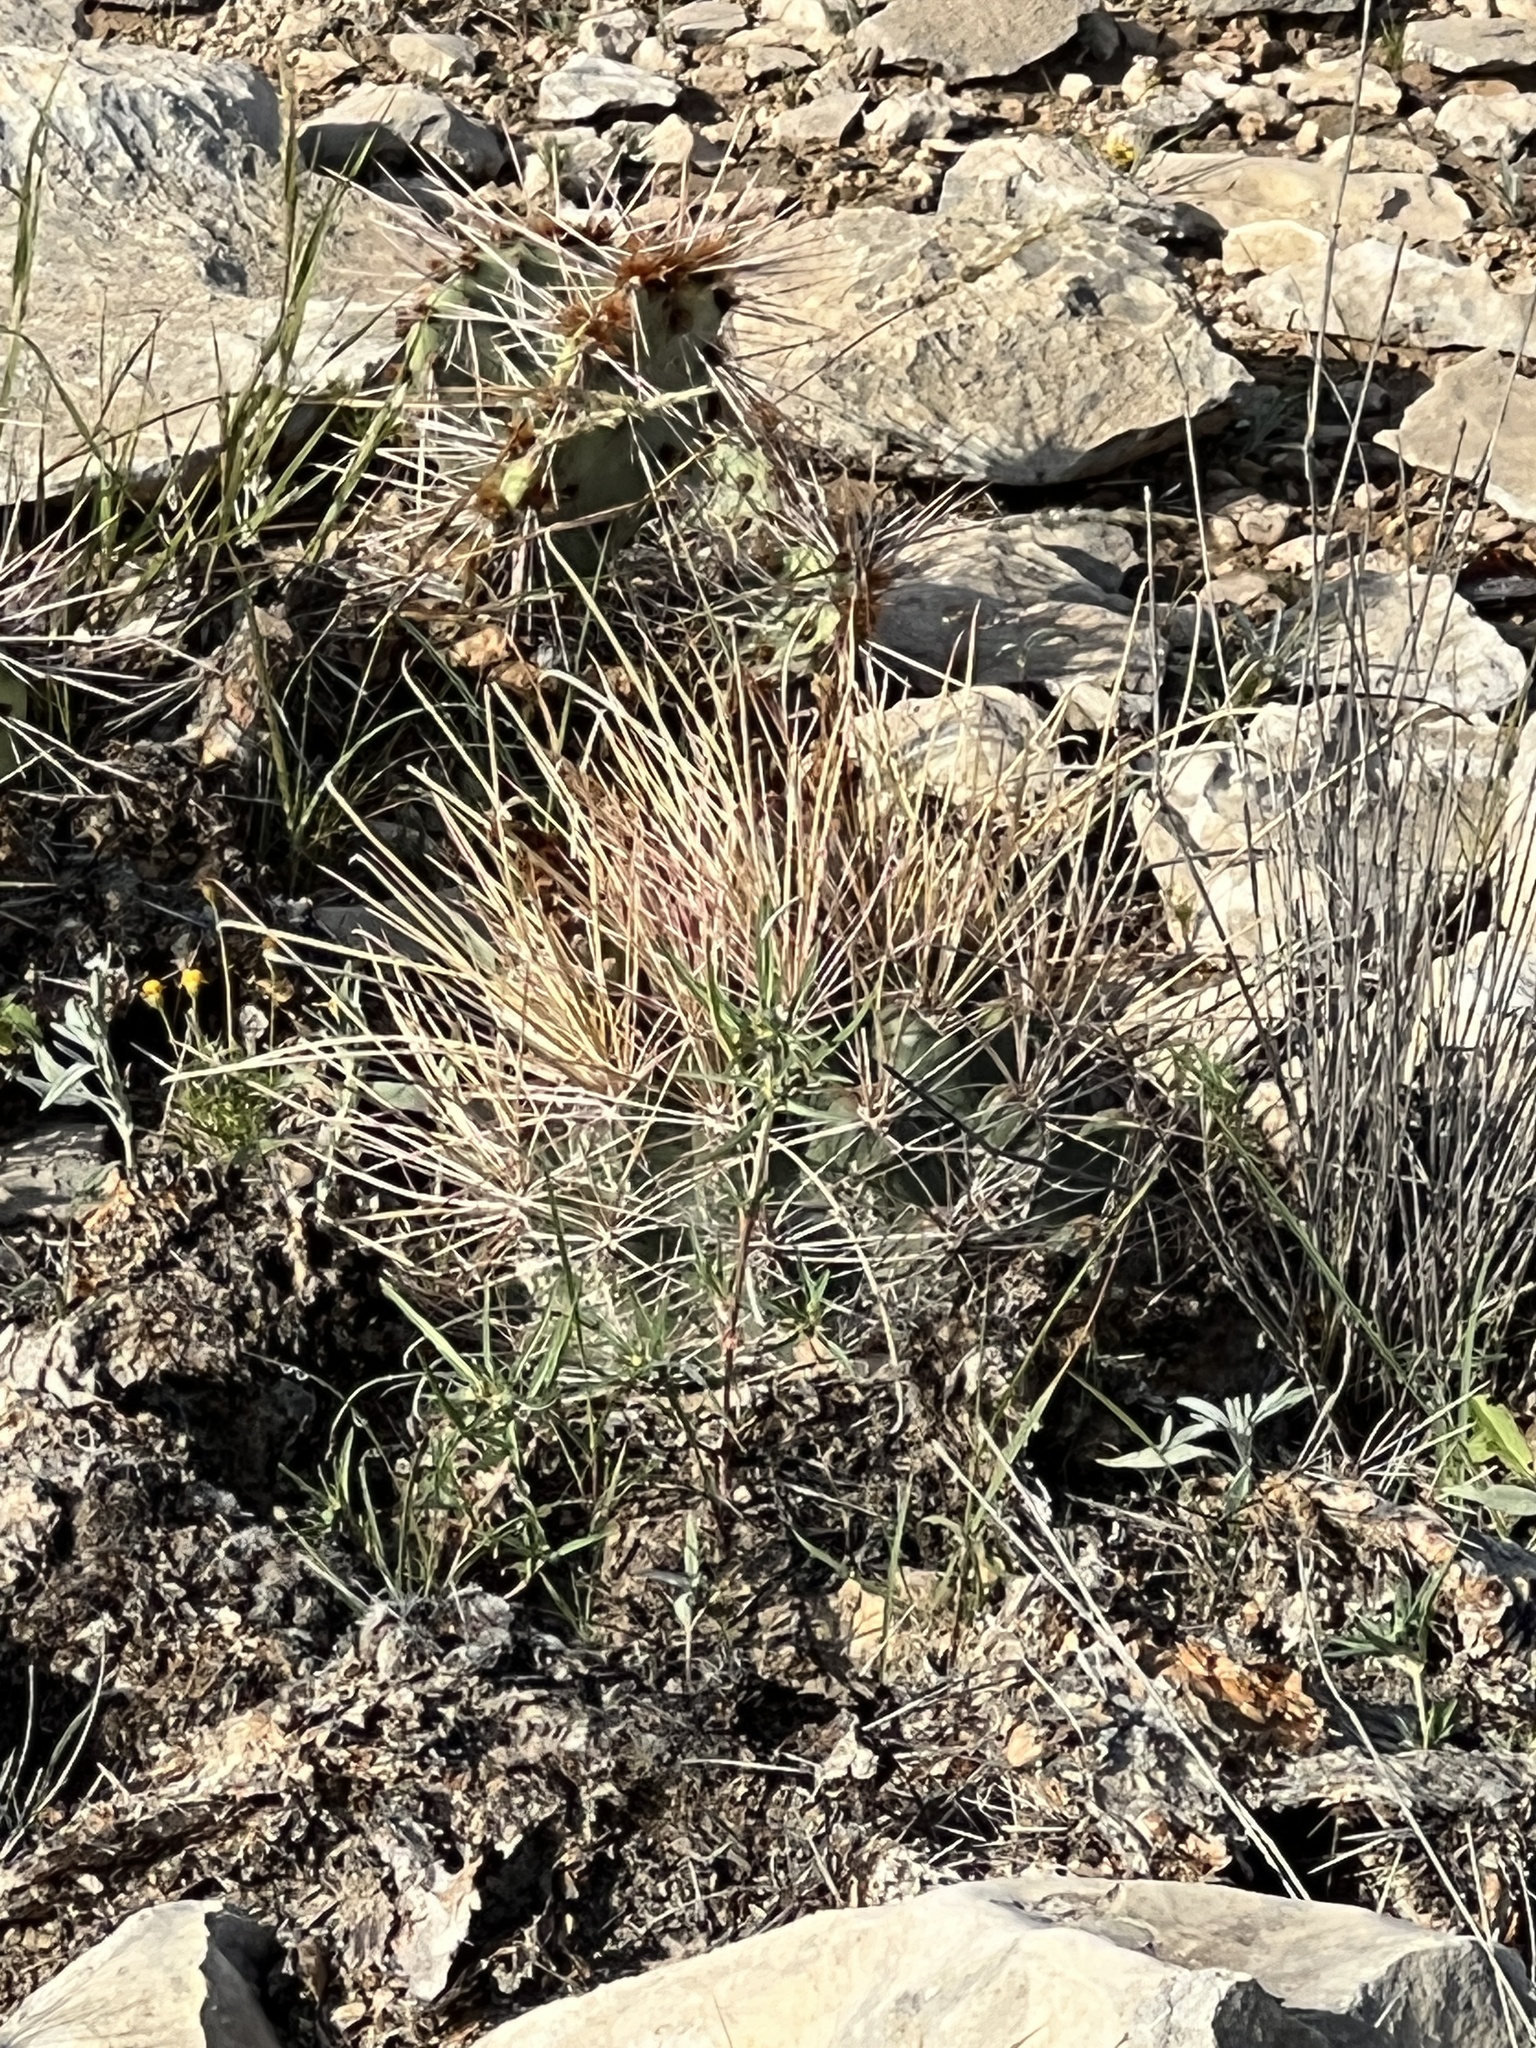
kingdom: Plantae
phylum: Tracheophyta
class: Magnoliopsida
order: Caryophyllales
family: Cactaceae
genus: Bisnaga
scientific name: Bisnaga hamatacantha
